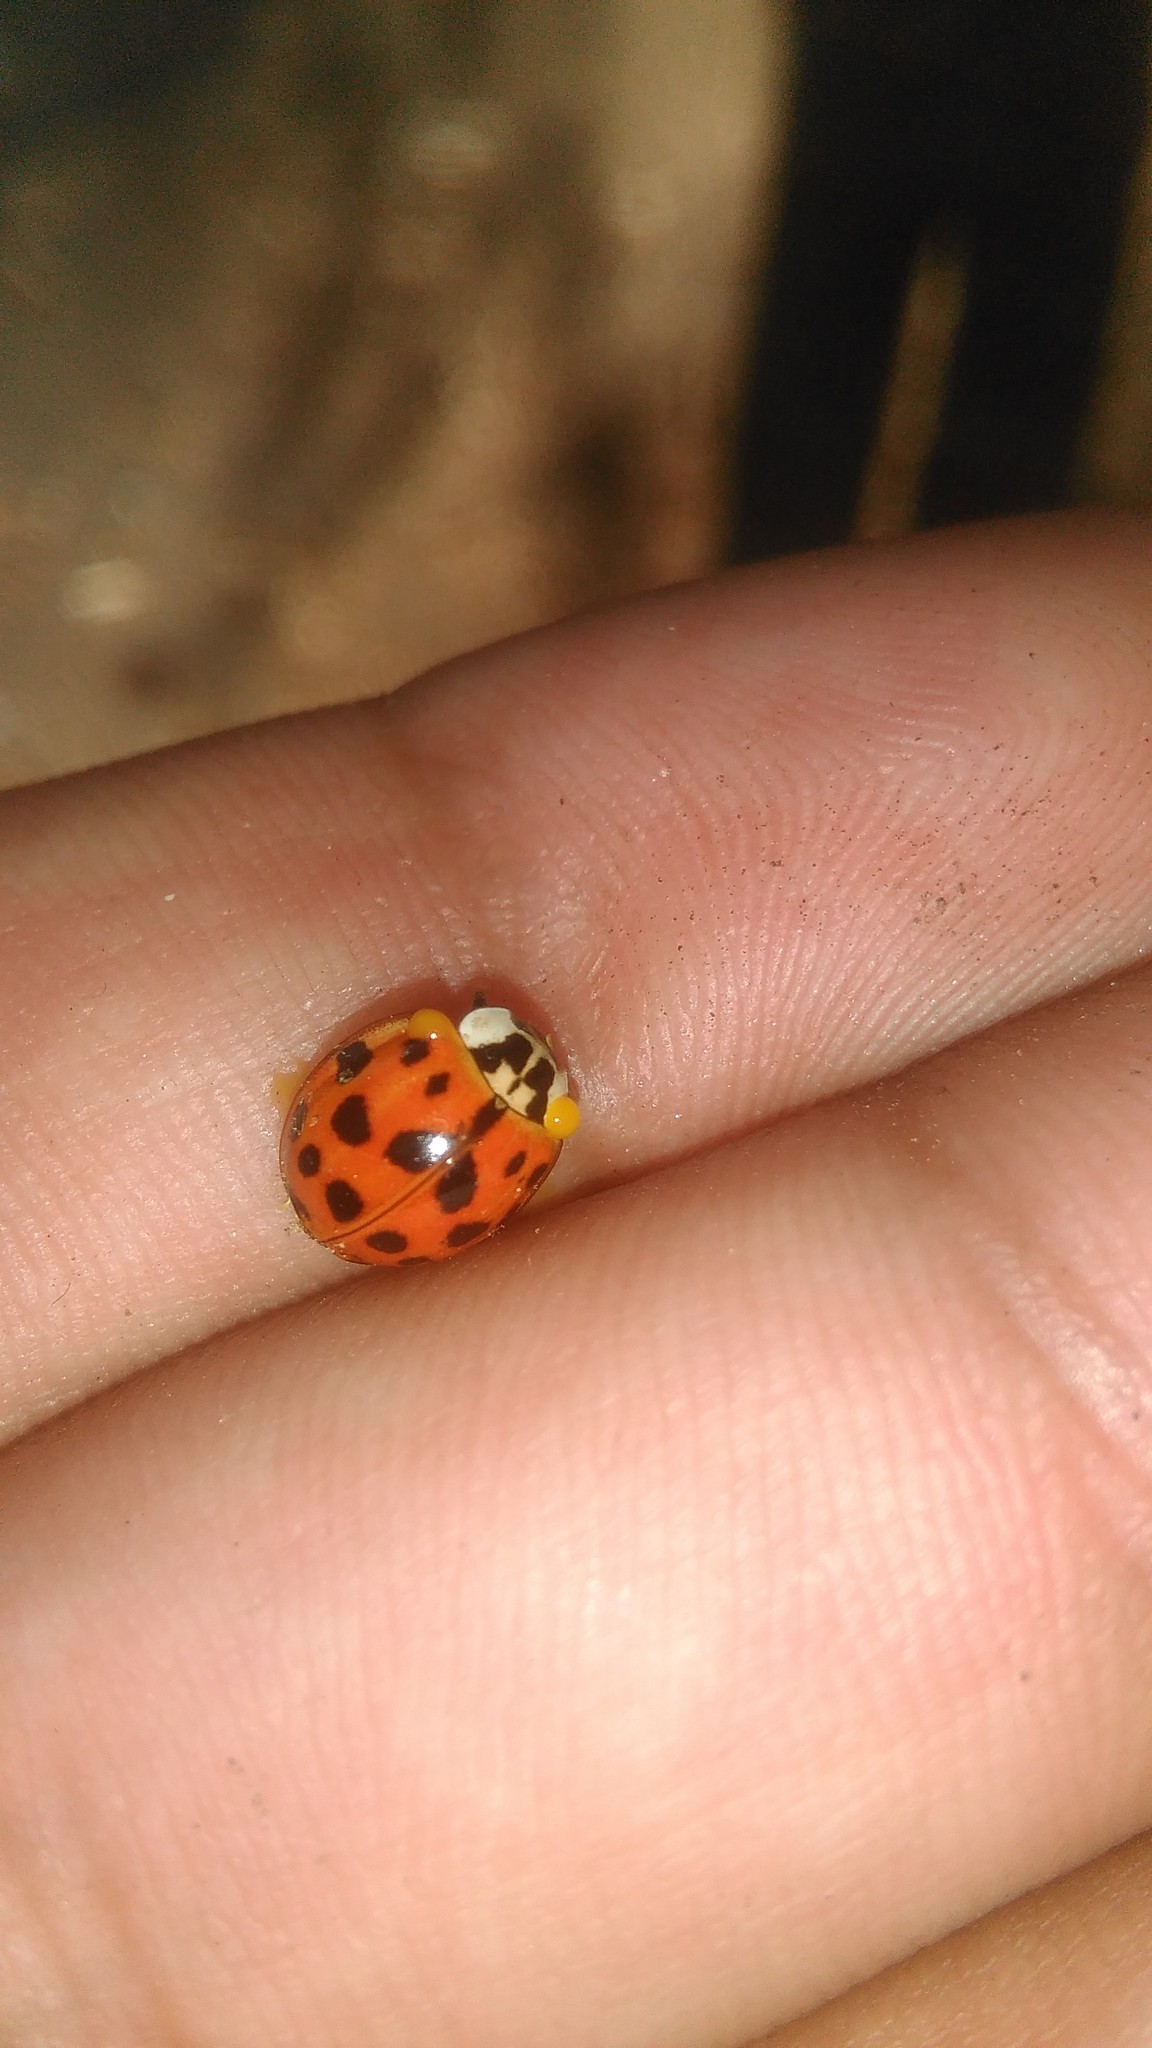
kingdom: Animalia
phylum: Arthropoda
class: Insecta
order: Coleoptera
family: Coccinellidae
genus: Harmonia
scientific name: Harmonia axyridis
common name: Harlequin ladybird
